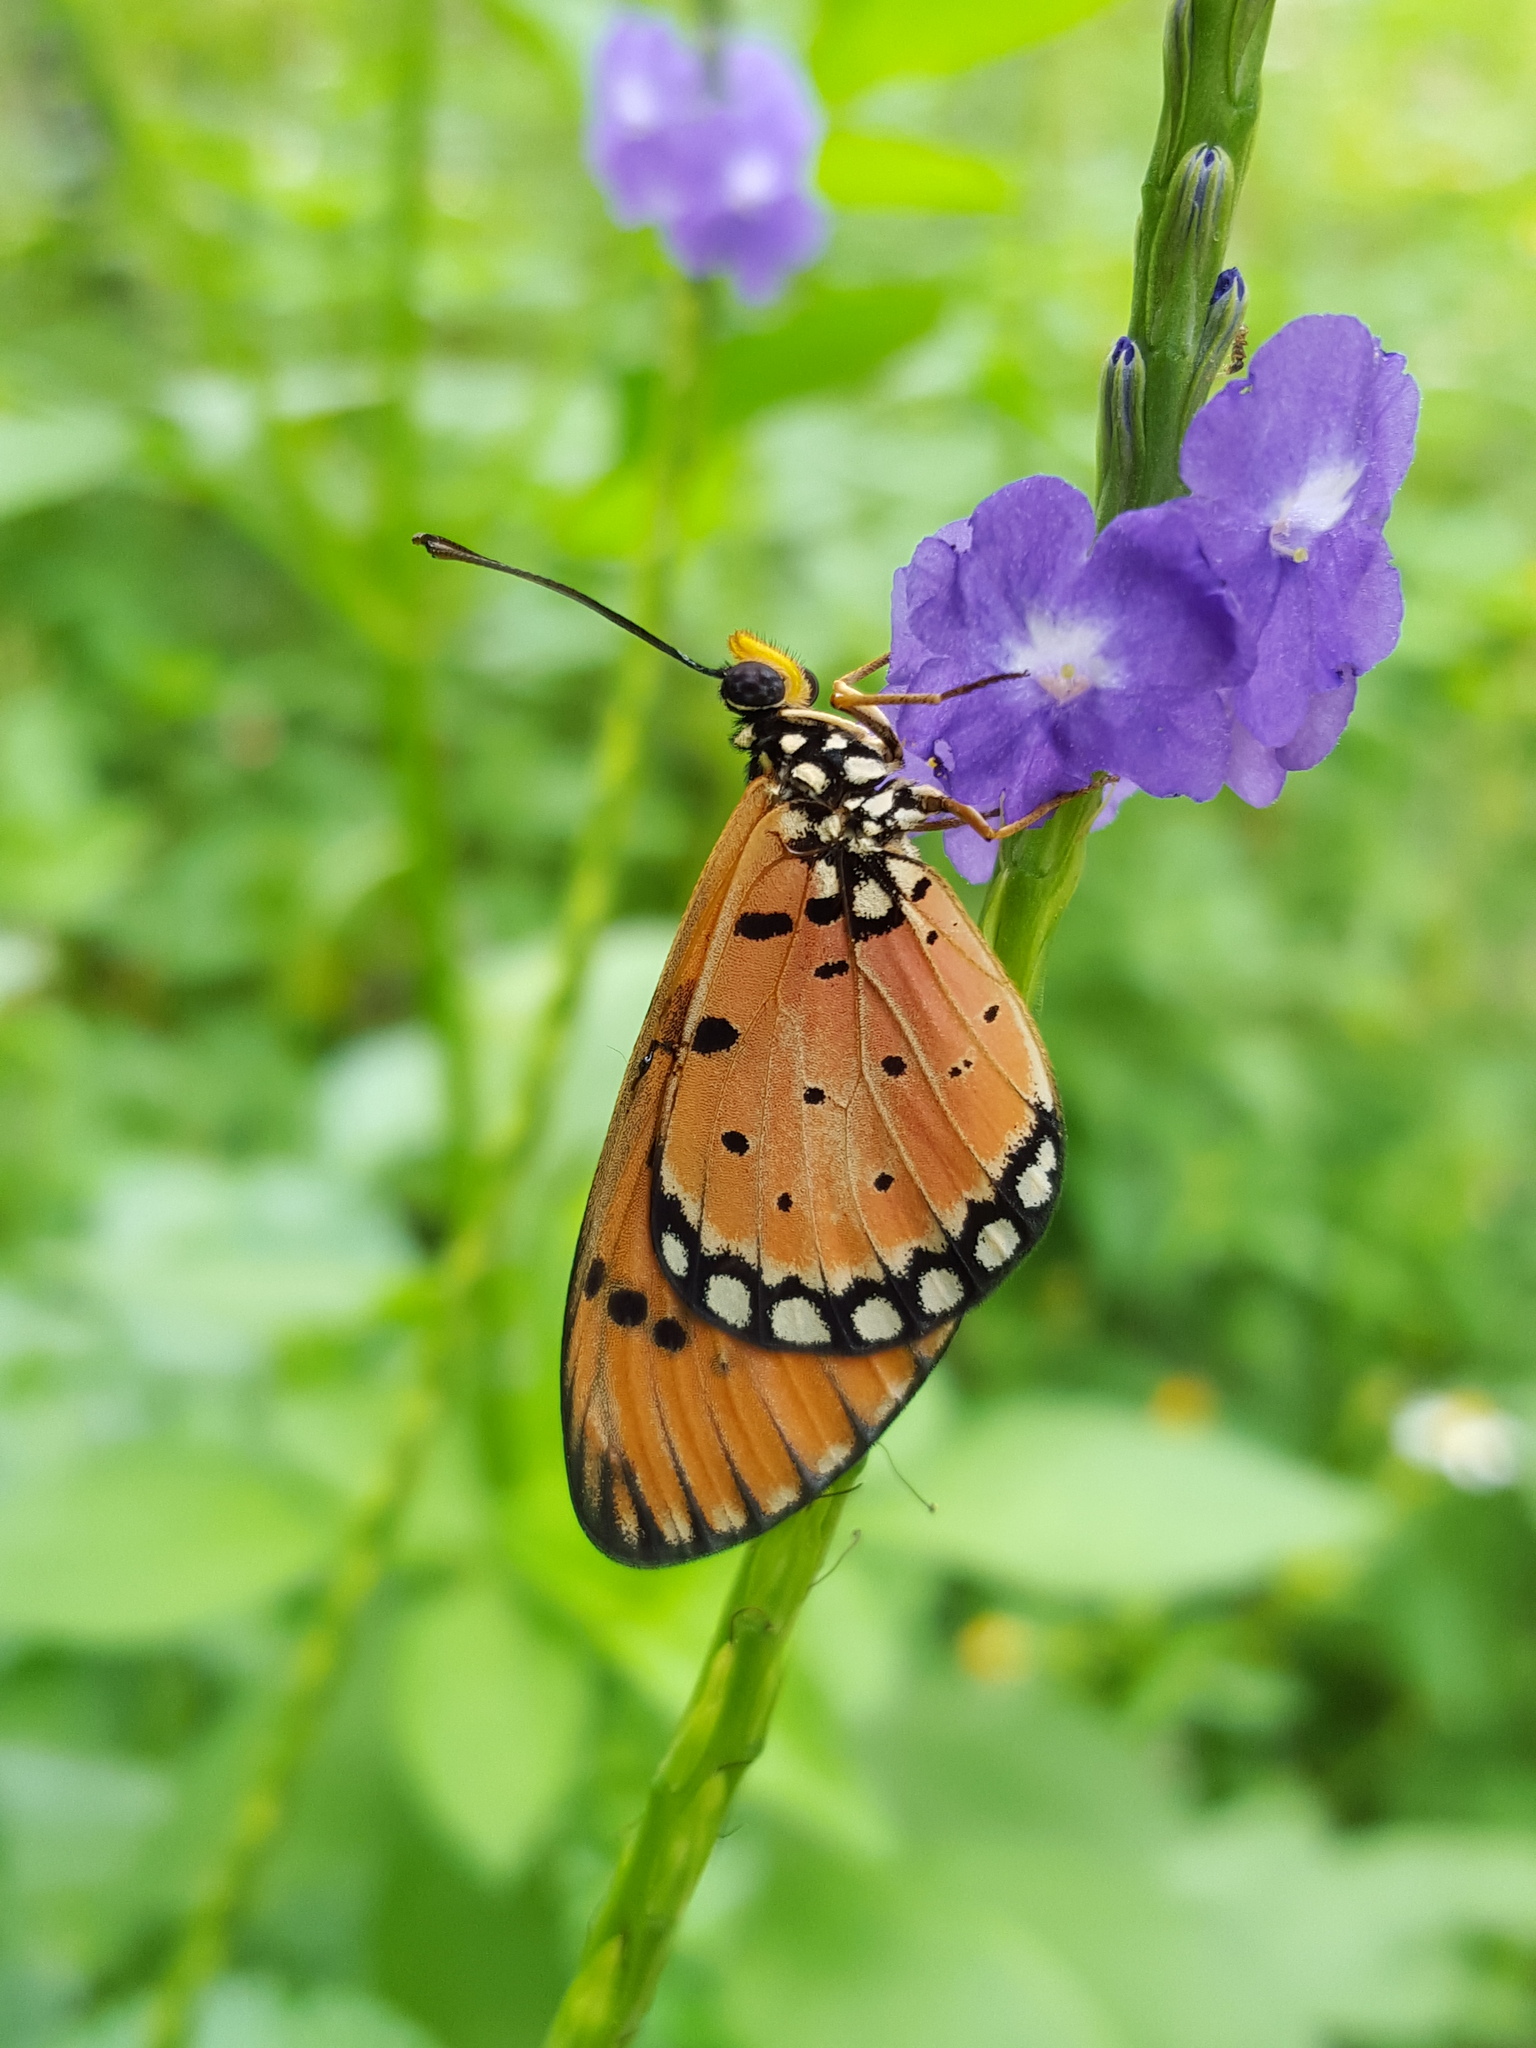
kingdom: Animalia
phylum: Arthropoda
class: Insecta
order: Lepidoptera
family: Nymphalidae
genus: Acraea
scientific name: Acraea terpsicore
